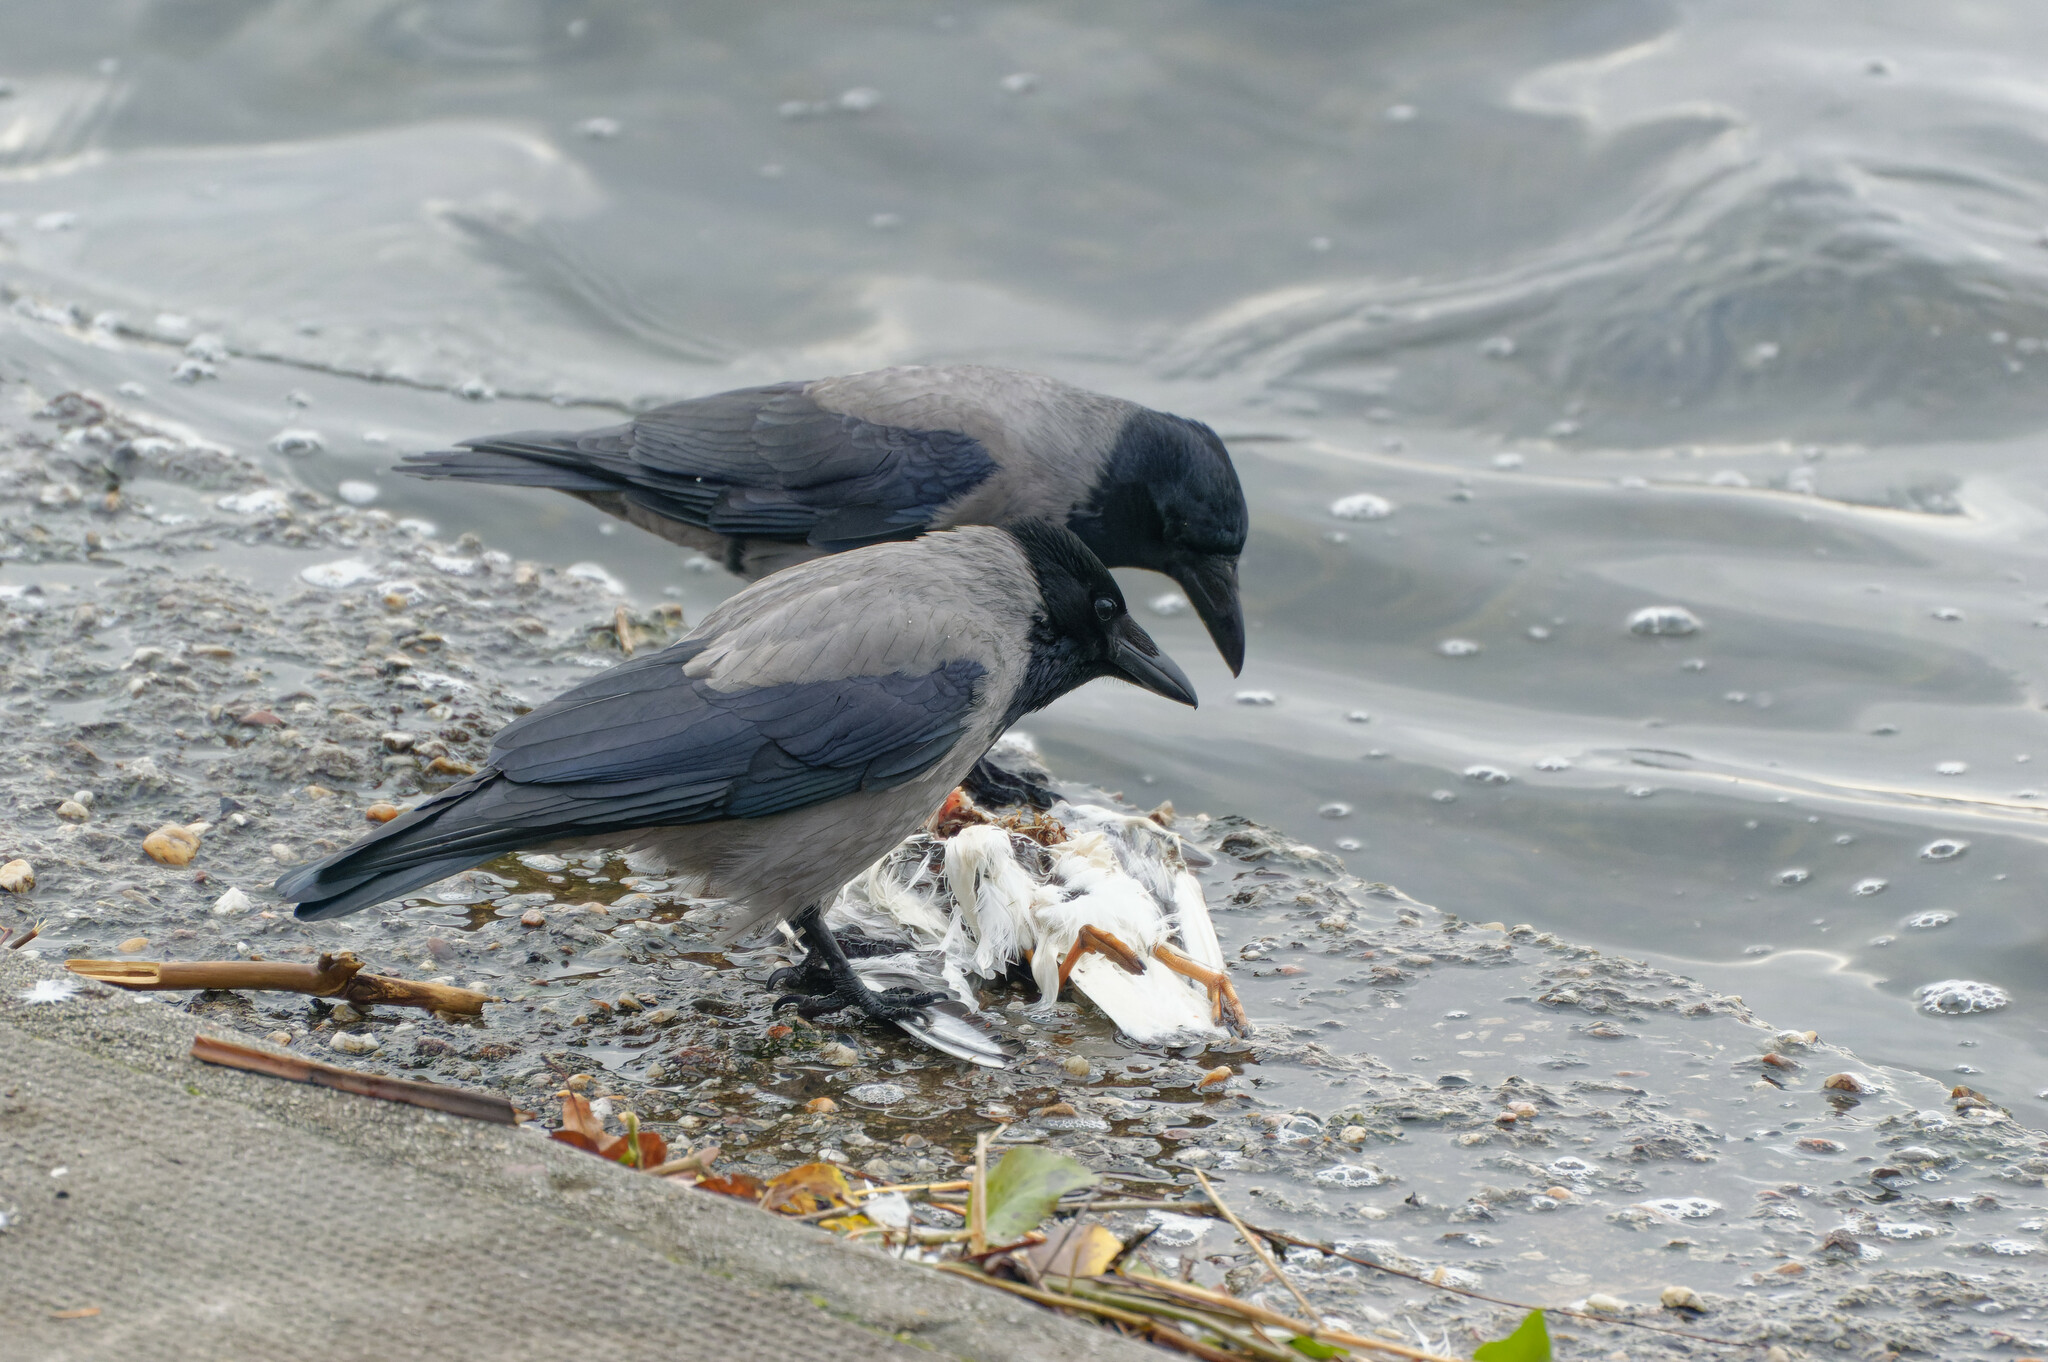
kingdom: Animalia
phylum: Chordata
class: Aves
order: Passeriformes
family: Corvidae
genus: Corvus
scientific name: Corvus cornix
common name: Hooded crow
